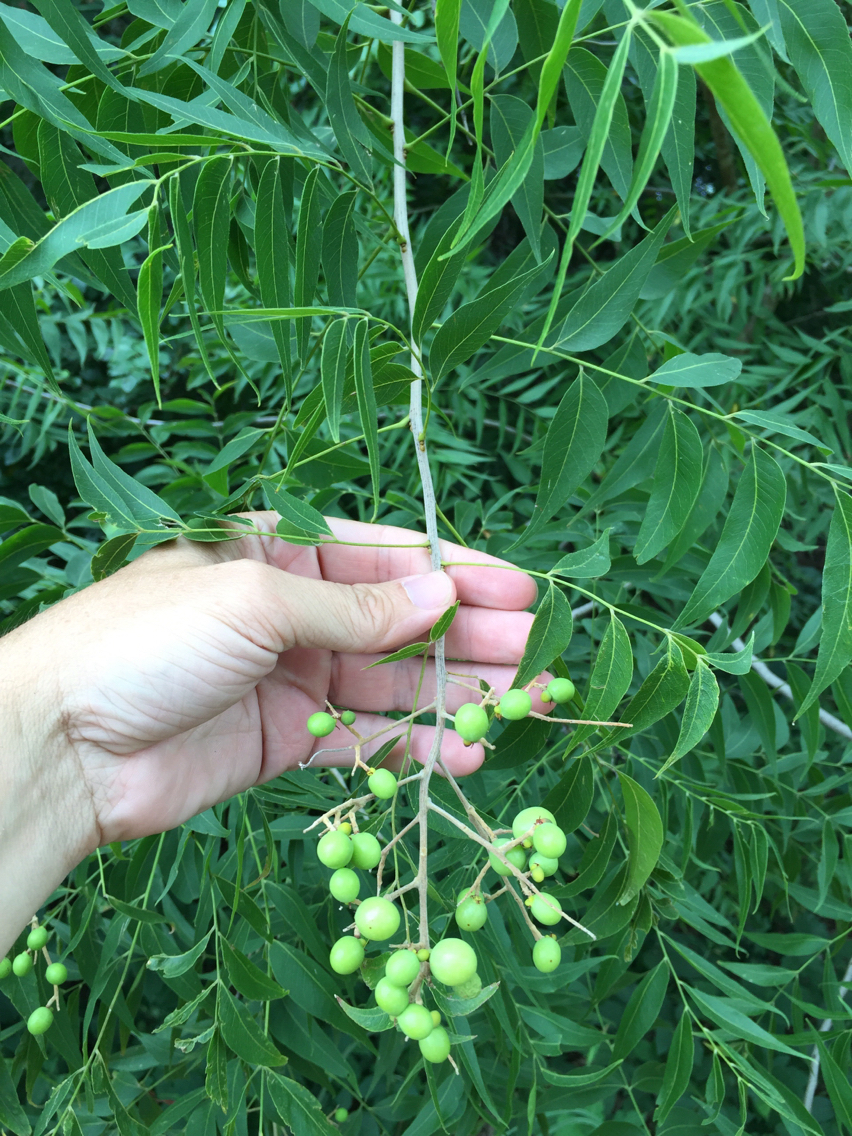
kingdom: Plantae
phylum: Tracheophyta
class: Magnoliopsida
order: Sapindales
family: Meliaceae
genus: Melia
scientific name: Melia azedarach
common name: Chinaberrytree
